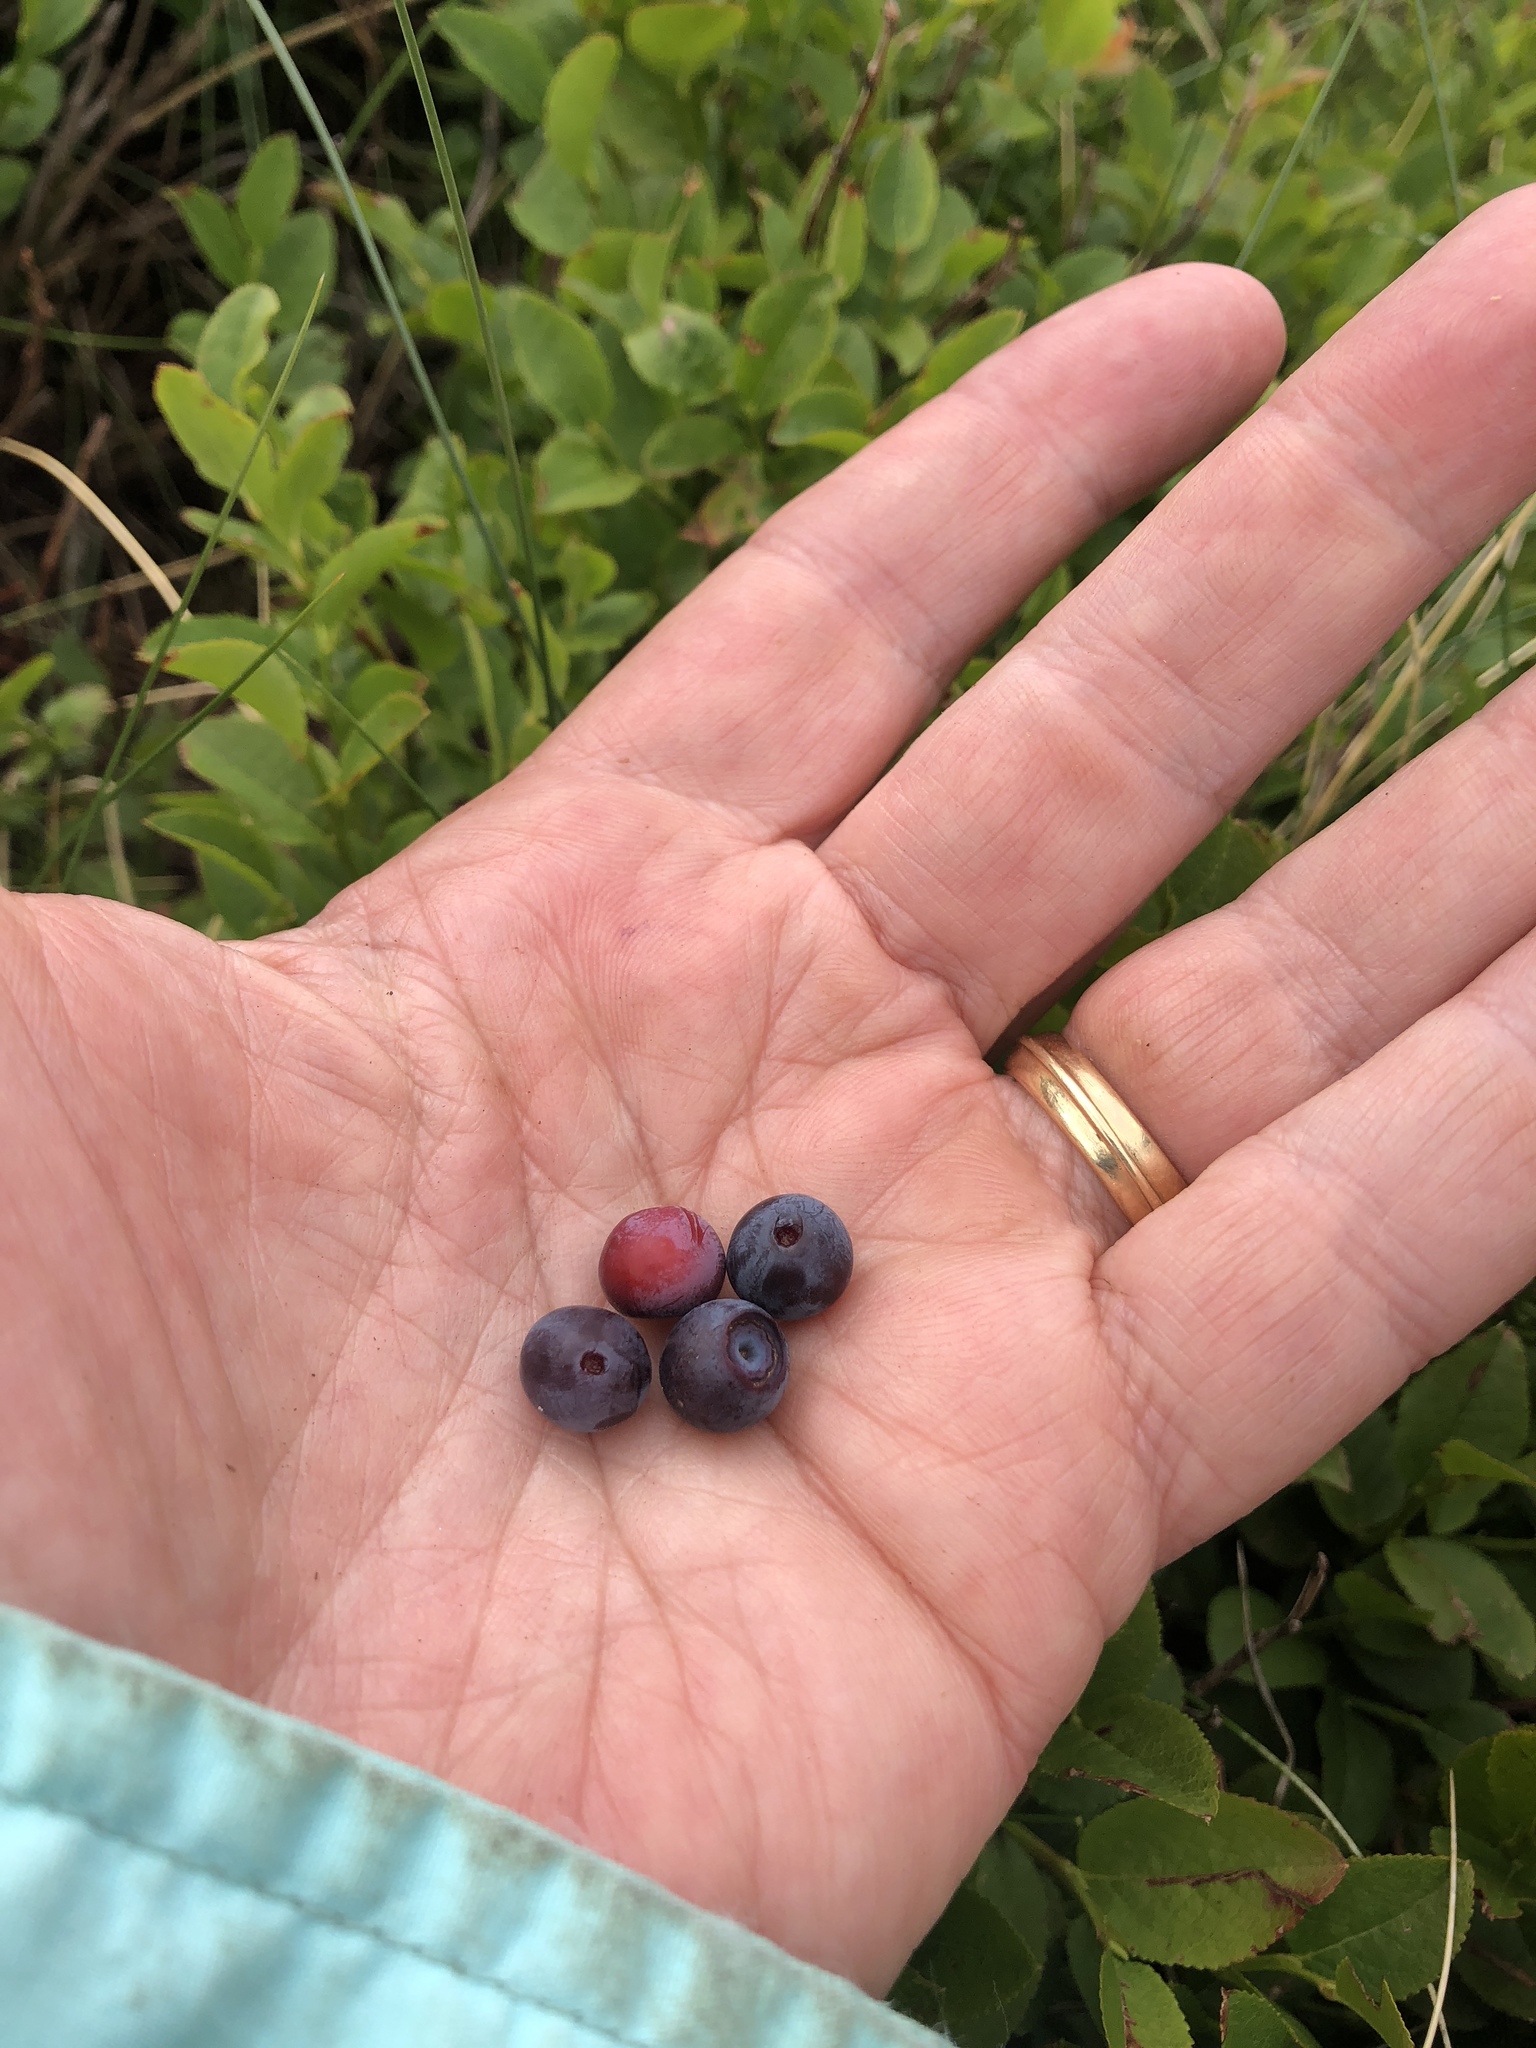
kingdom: Plantae
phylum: Tracheophyta
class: Magnoliopsida
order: Ericales
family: Ericaceae
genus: Vaccinium
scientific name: Vaccinium myrtillus
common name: Bilberry
